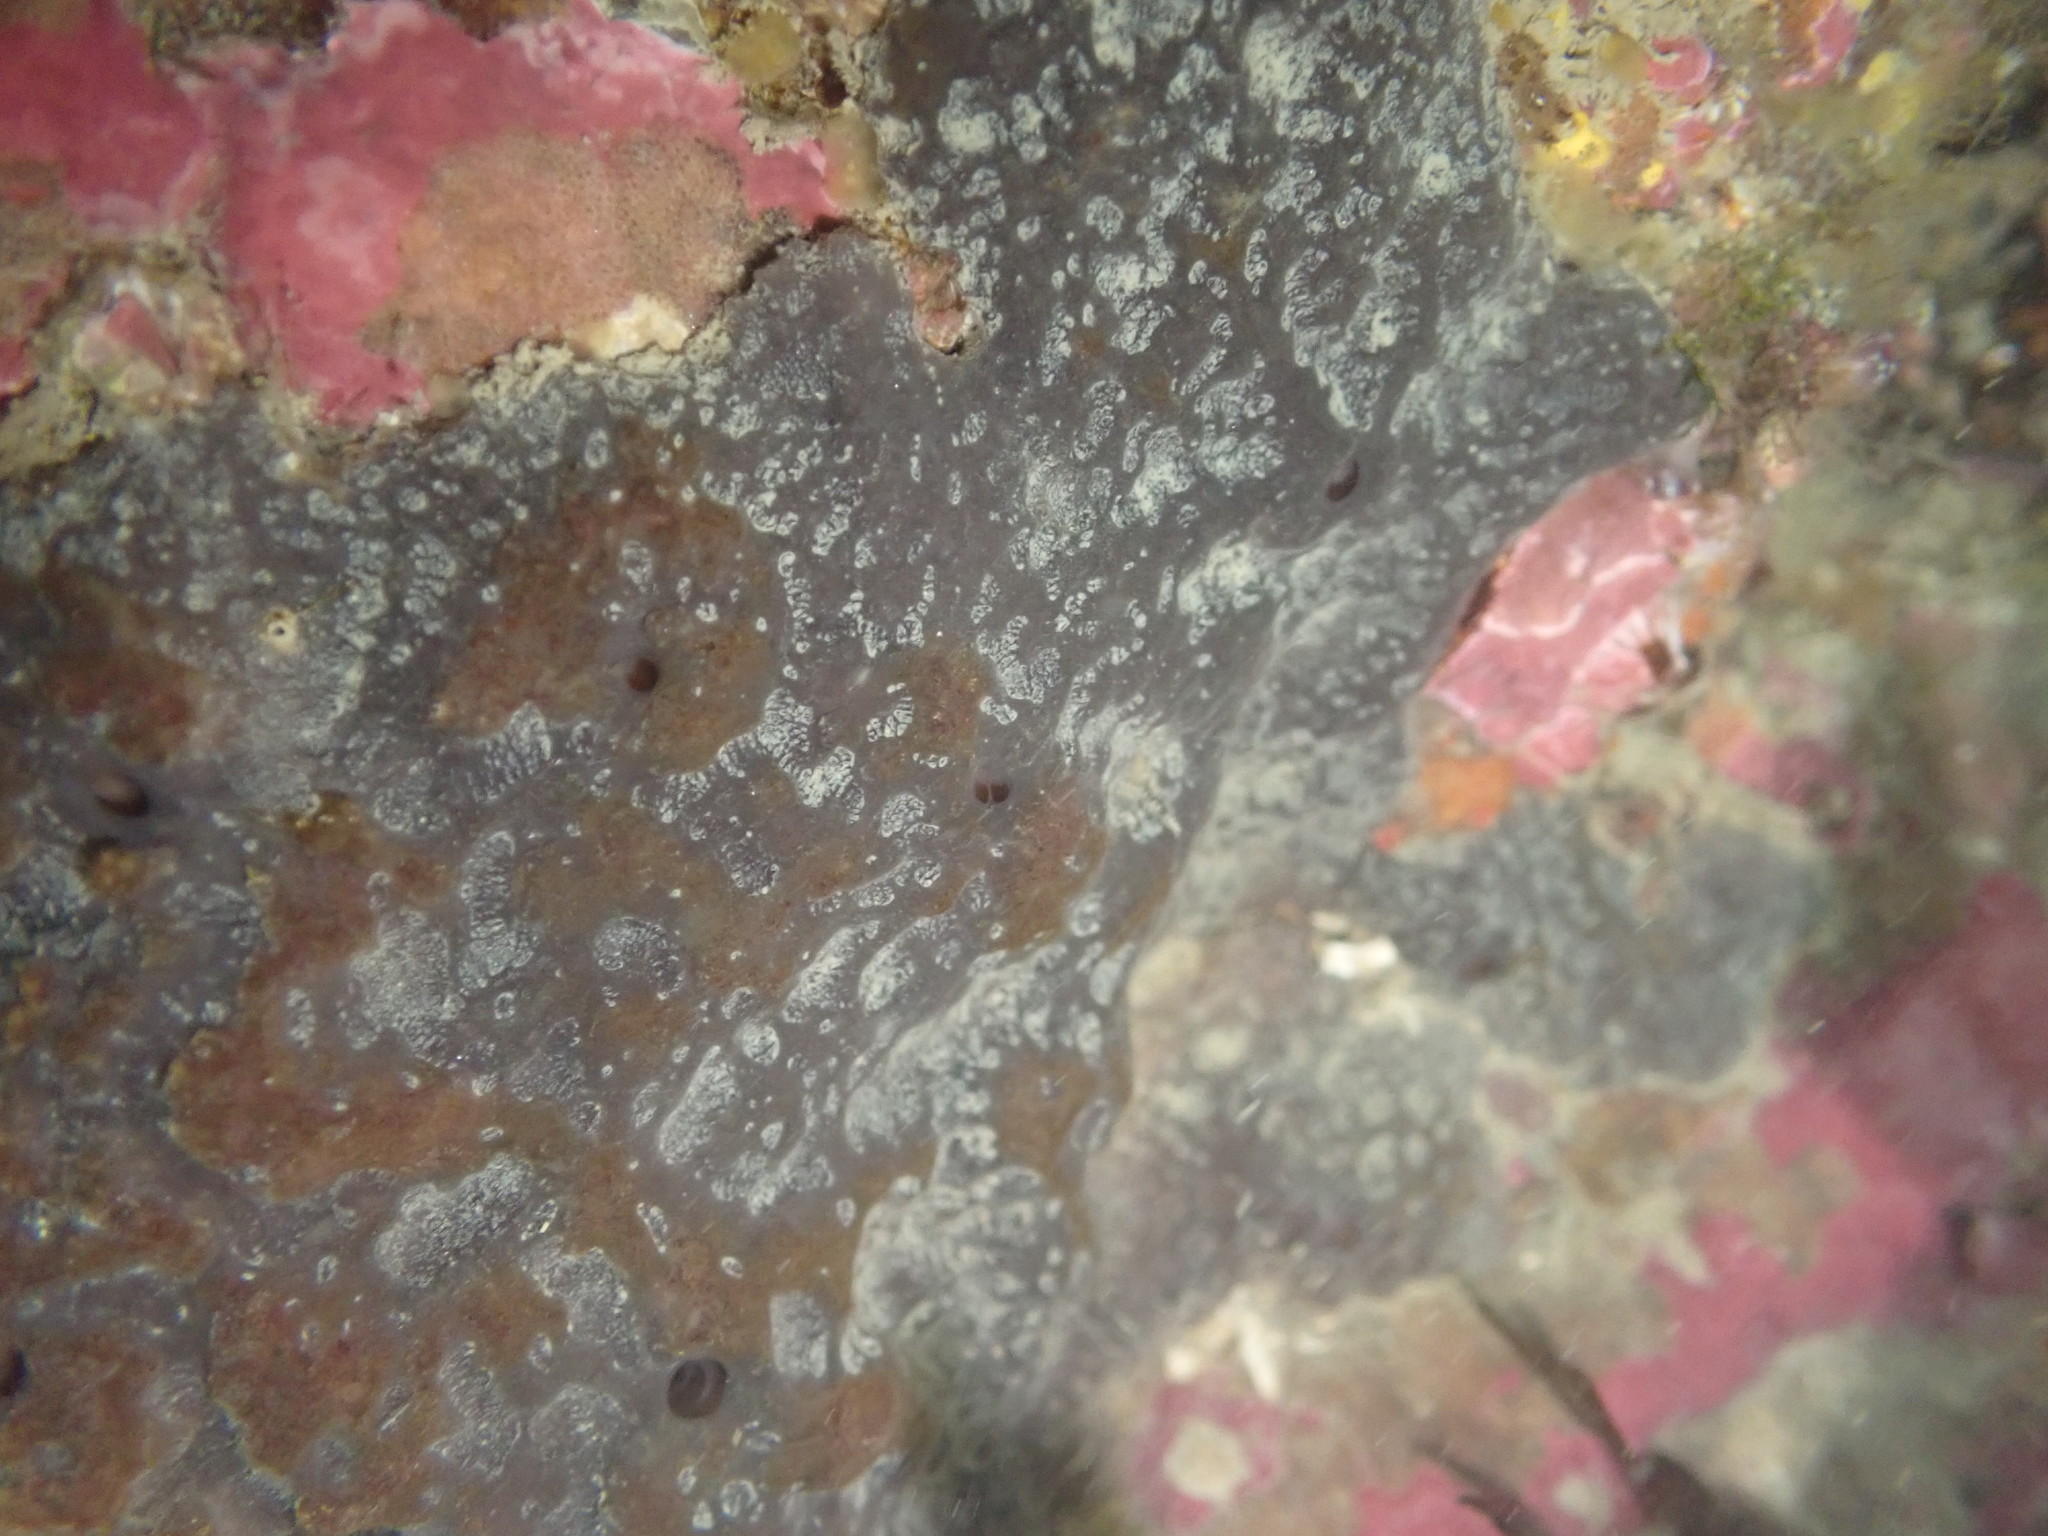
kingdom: Animalia
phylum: Porifera
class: Demospongiae
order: Dictyoceratida
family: Irciniidae
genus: Ircinia
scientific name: Ircinia novaezealandiae
